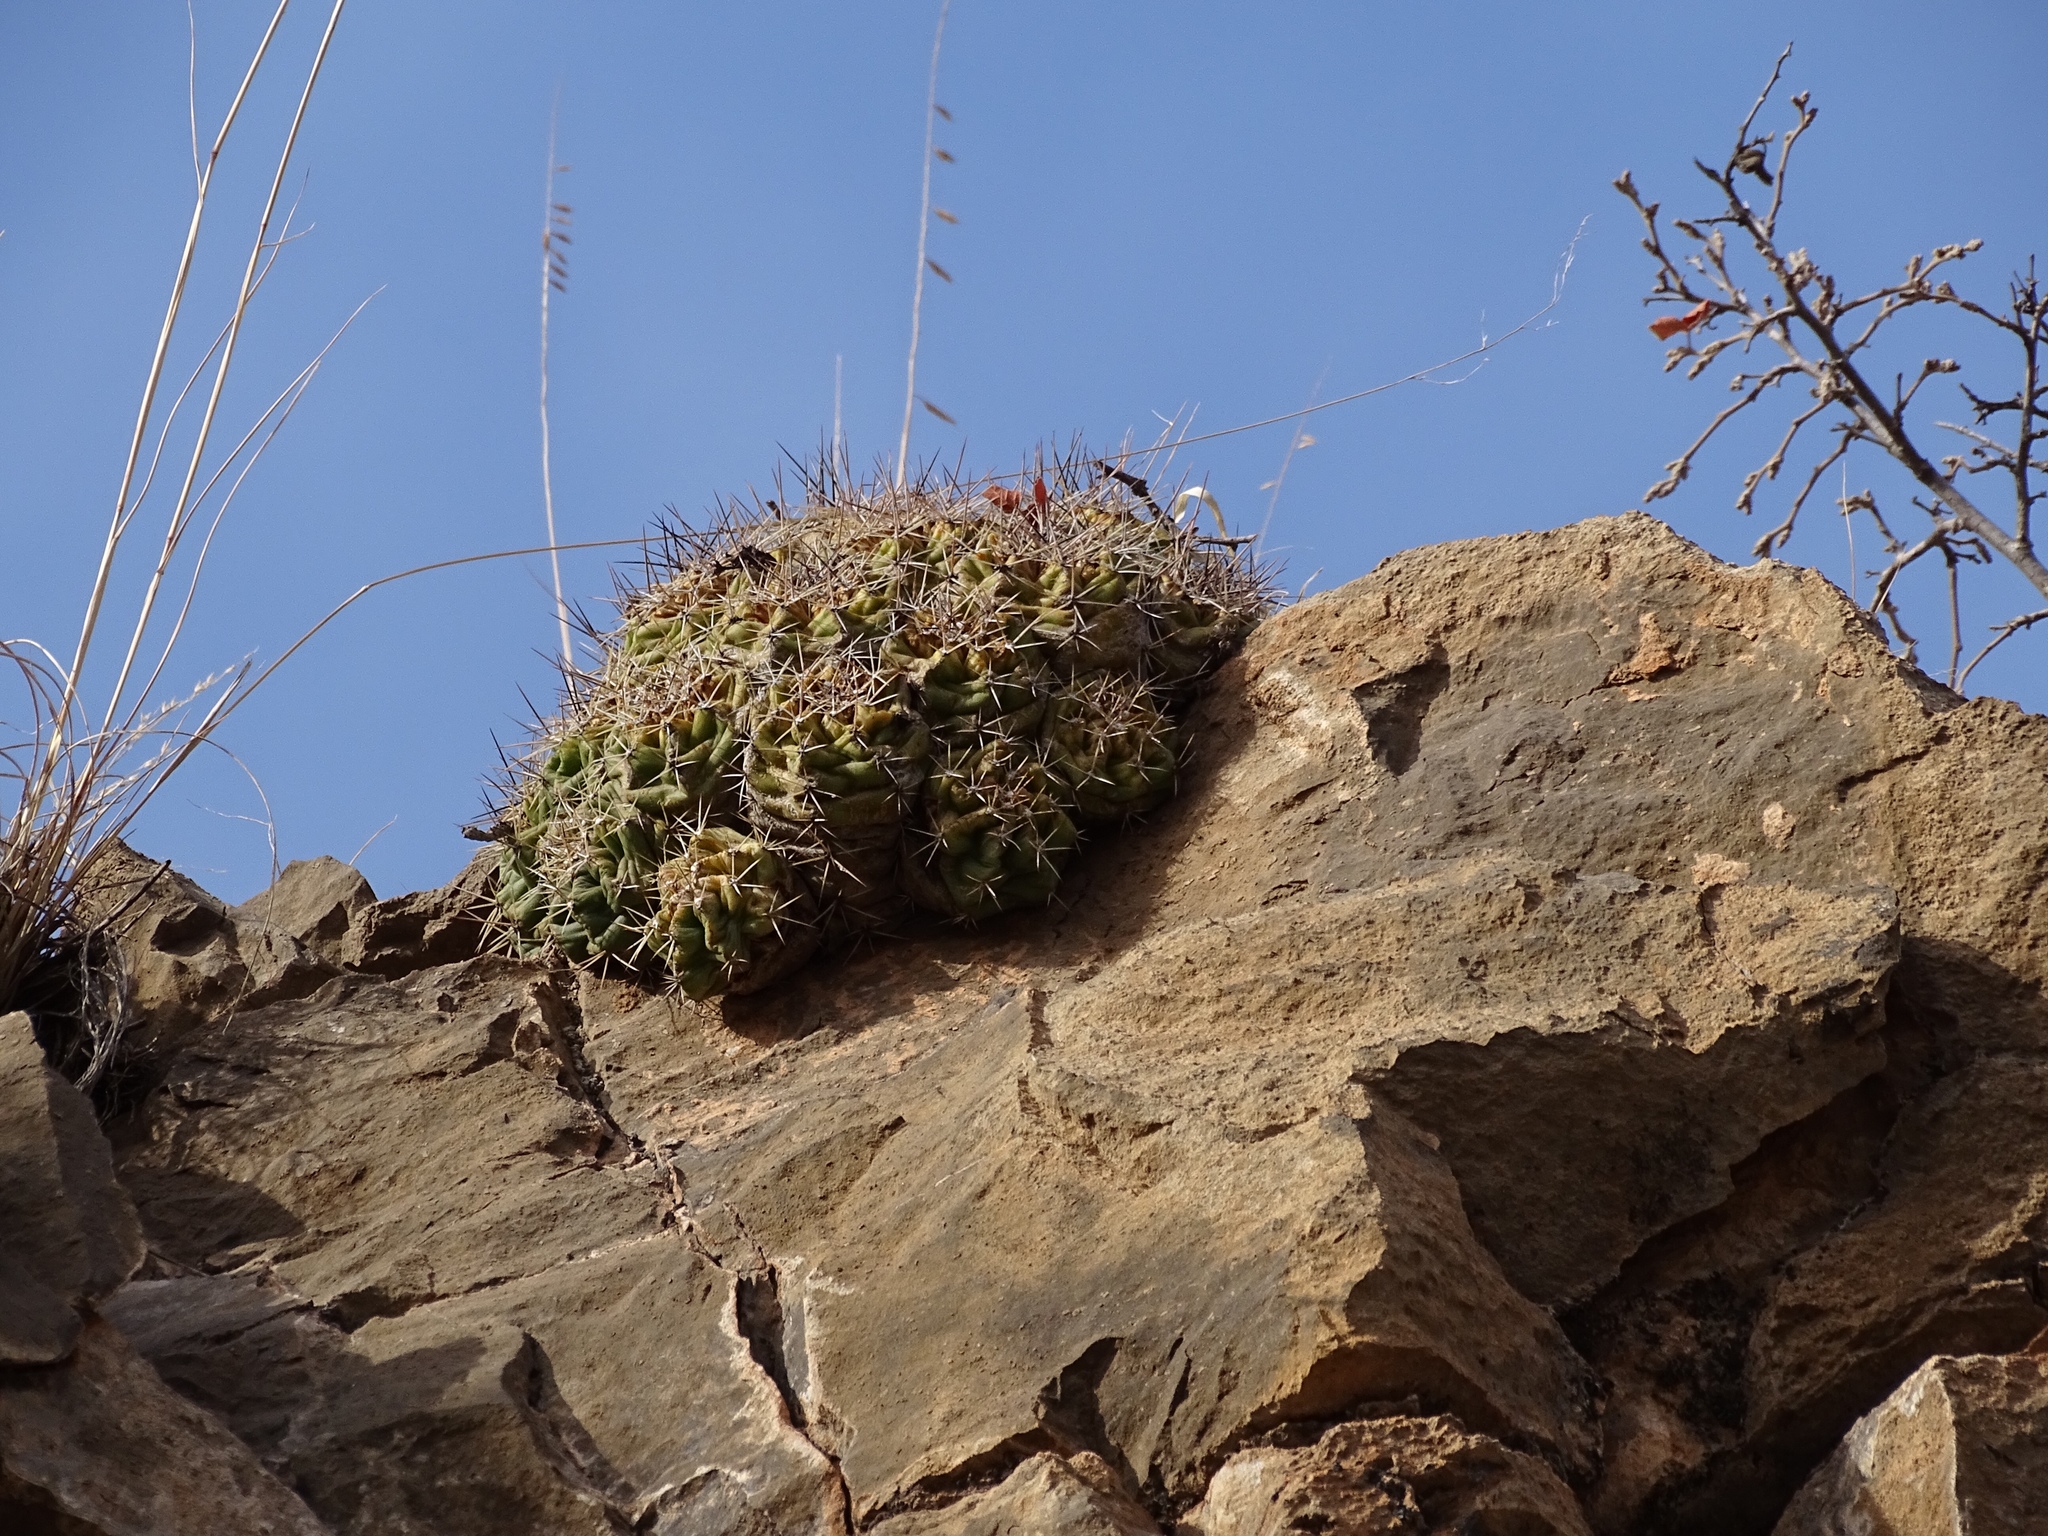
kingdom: Plantae
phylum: Tracheophyta
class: Magnoliopsida
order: Caryophyllales
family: Cactaceae
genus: Echinocereus
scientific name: Echinocereus coccineus
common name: Scarlet hedgehog cactus
